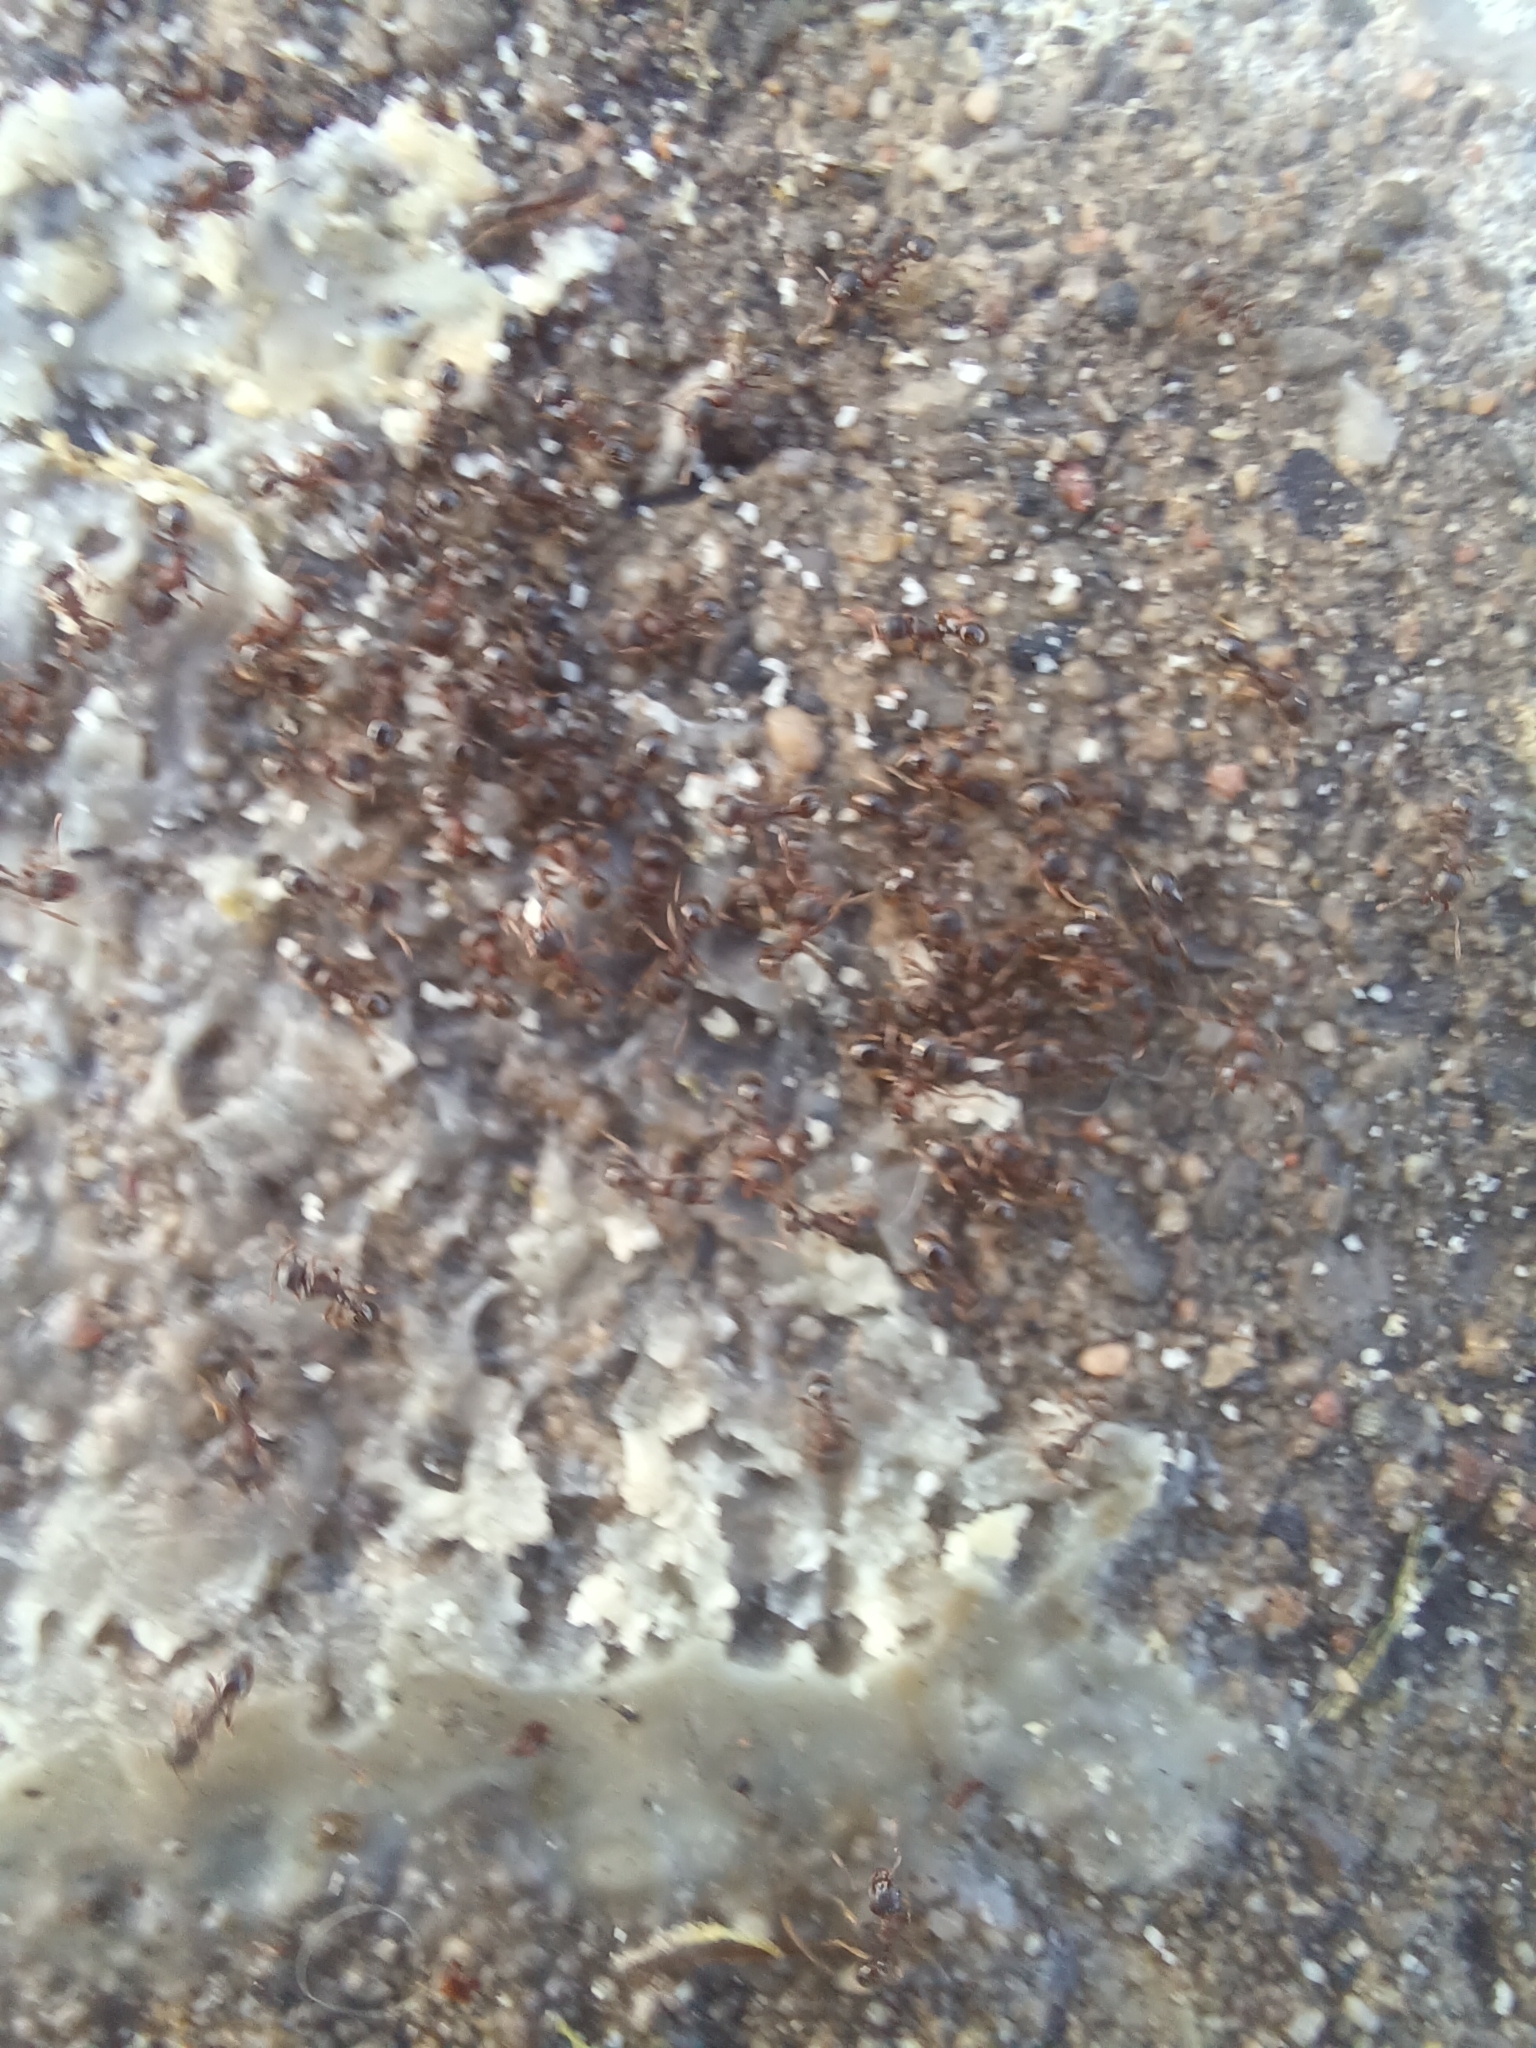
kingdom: Animalia
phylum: Arthropoda
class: Insecta
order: Hymenoptera
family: Formicidae
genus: Tetramorium
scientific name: Tetramorium immigrans
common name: Pavement ant
